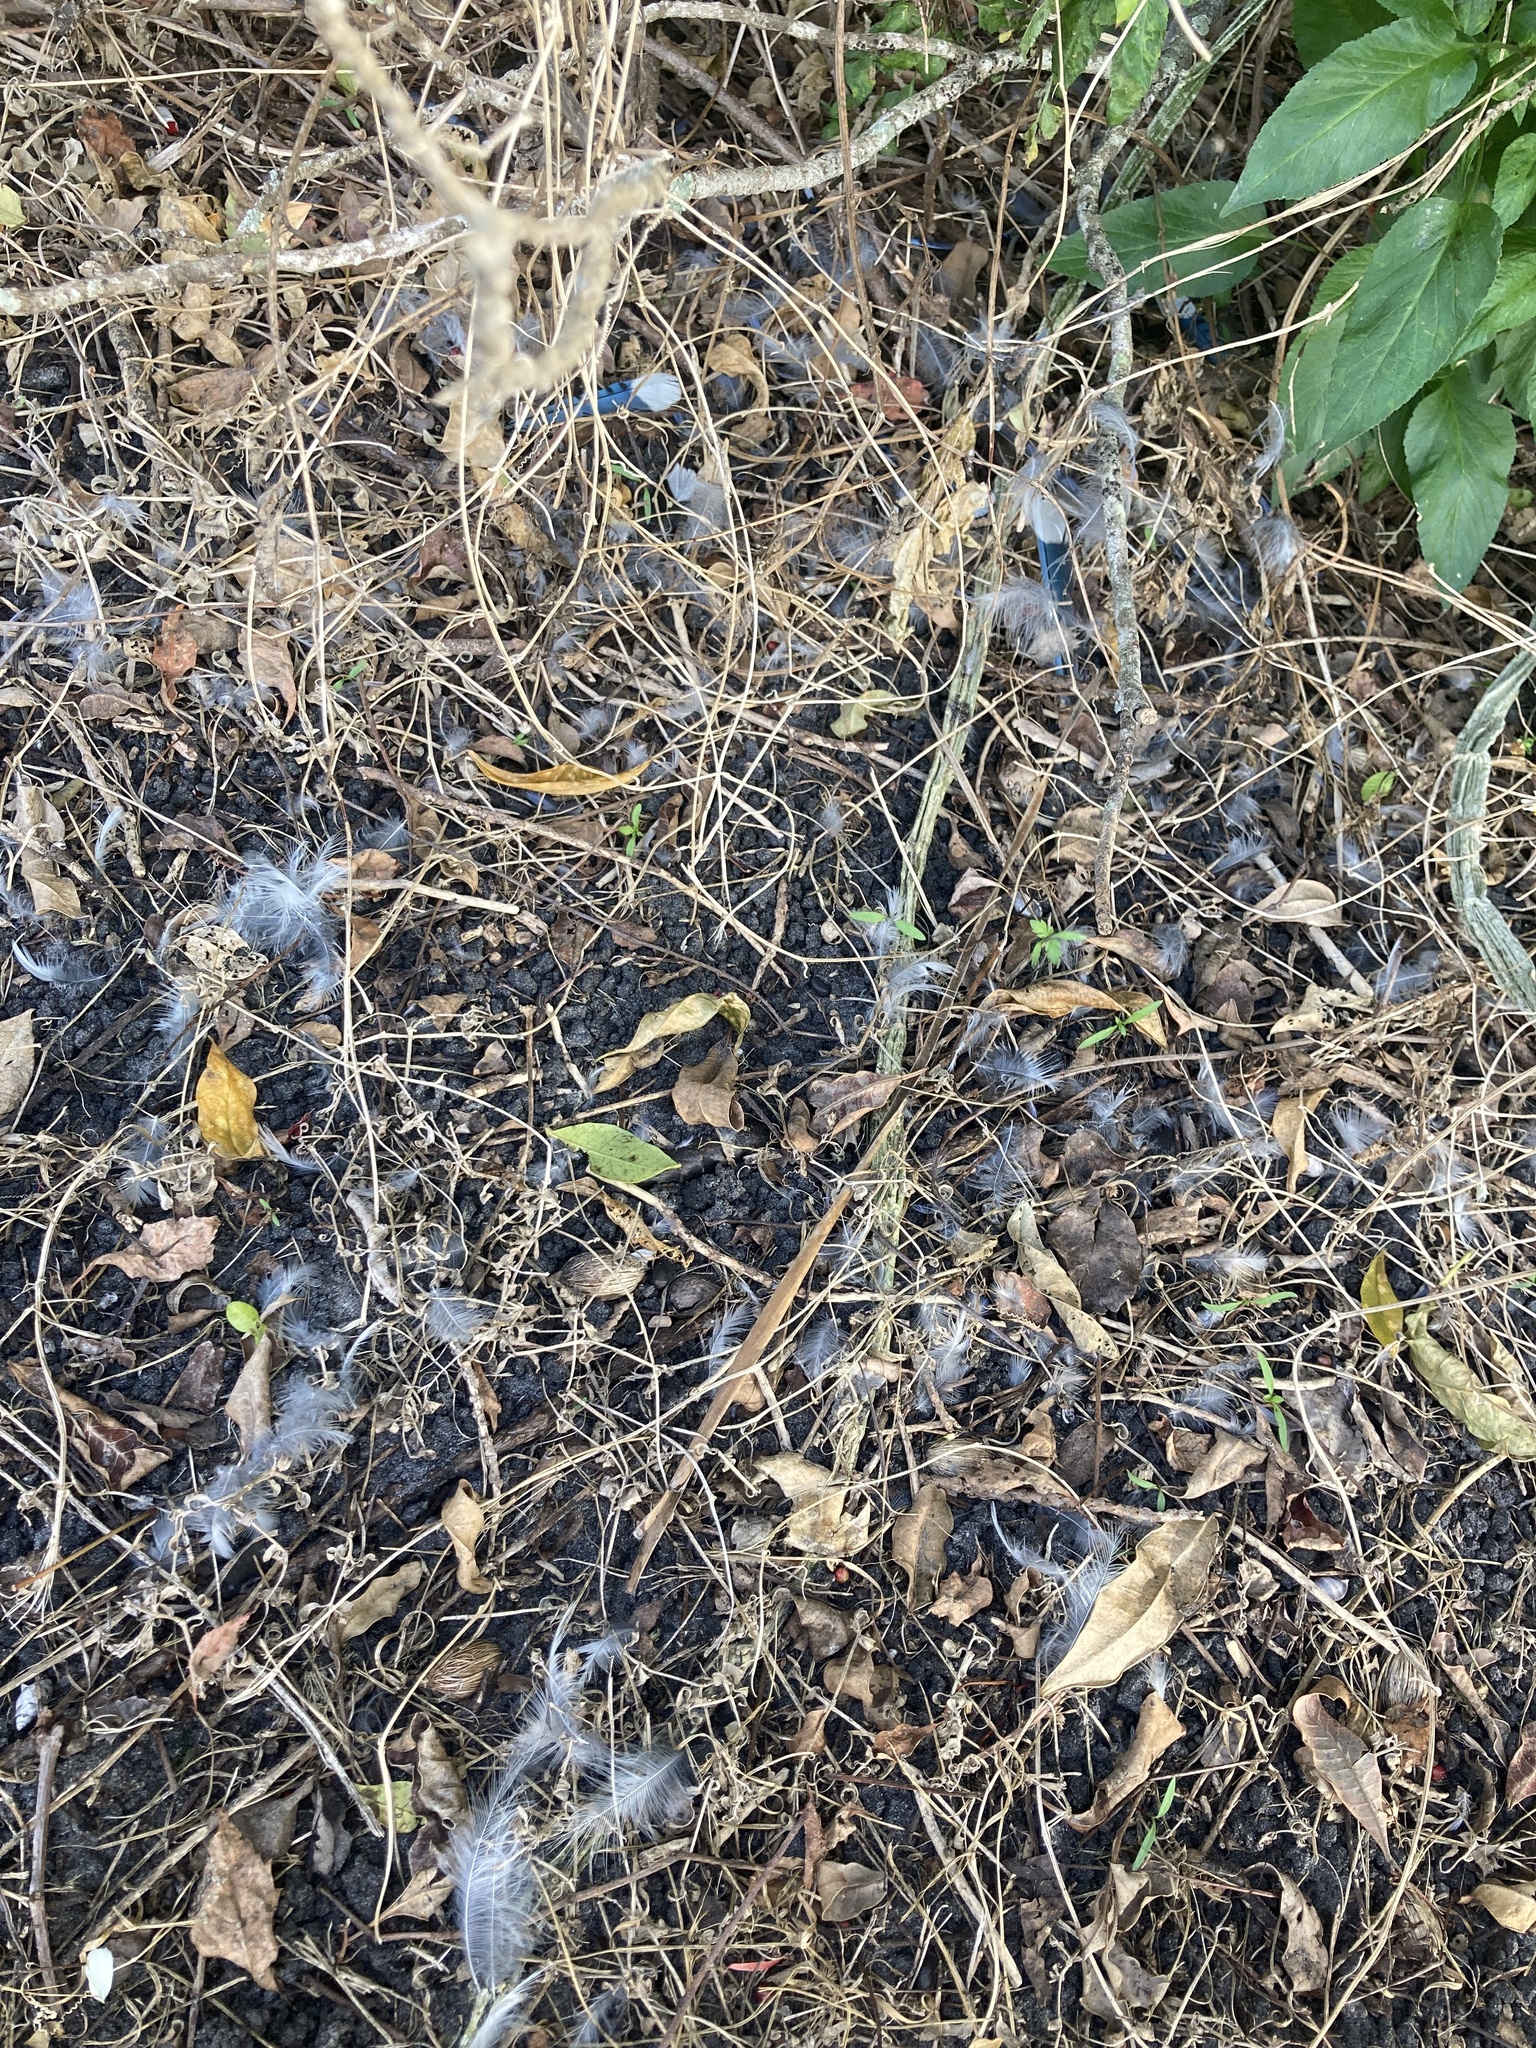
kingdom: Animalia
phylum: Chordata
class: Aves
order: Passeriformes
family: Corvidae
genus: Cyanocitta
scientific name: Cyanocitta cristata
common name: Blue jay
